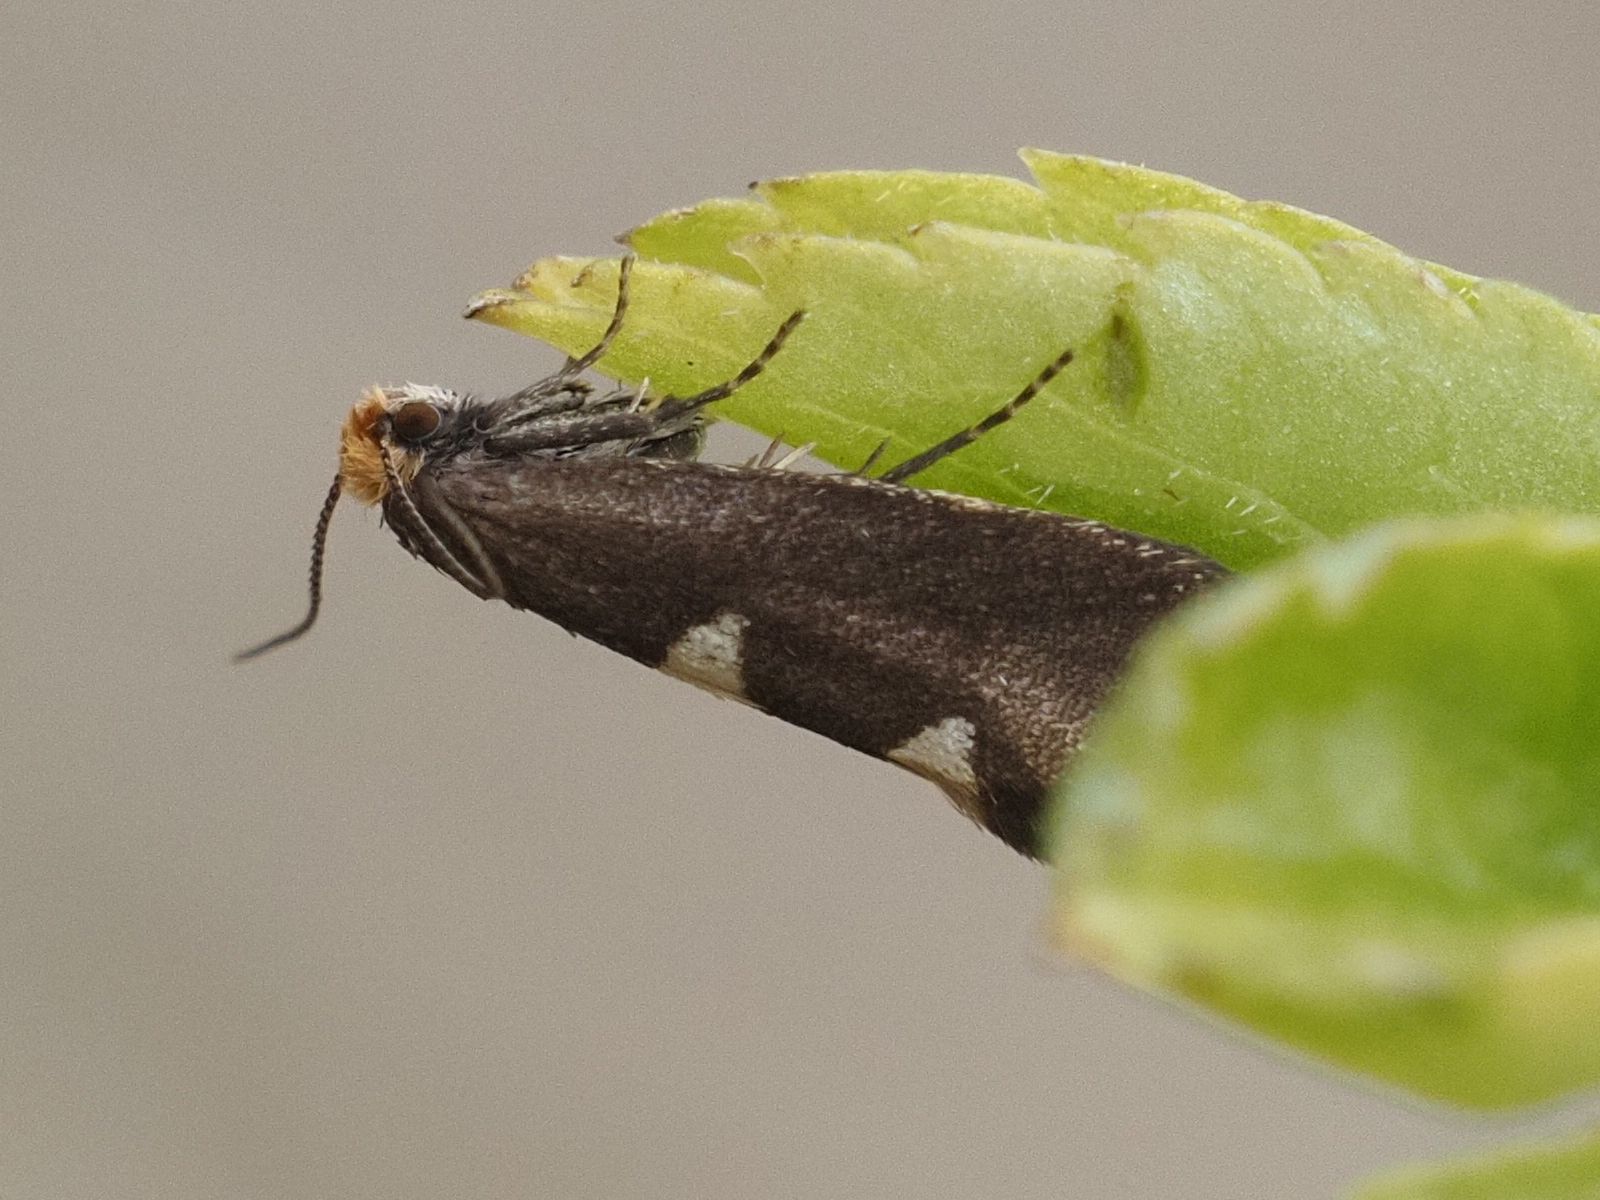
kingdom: Animalia
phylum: Arthropoda
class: Insecta
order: Lepidoptera
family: Incurvariidae
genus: Incurvaria
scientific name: Incurvaria masculella
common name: Feathered leaf-cutter
